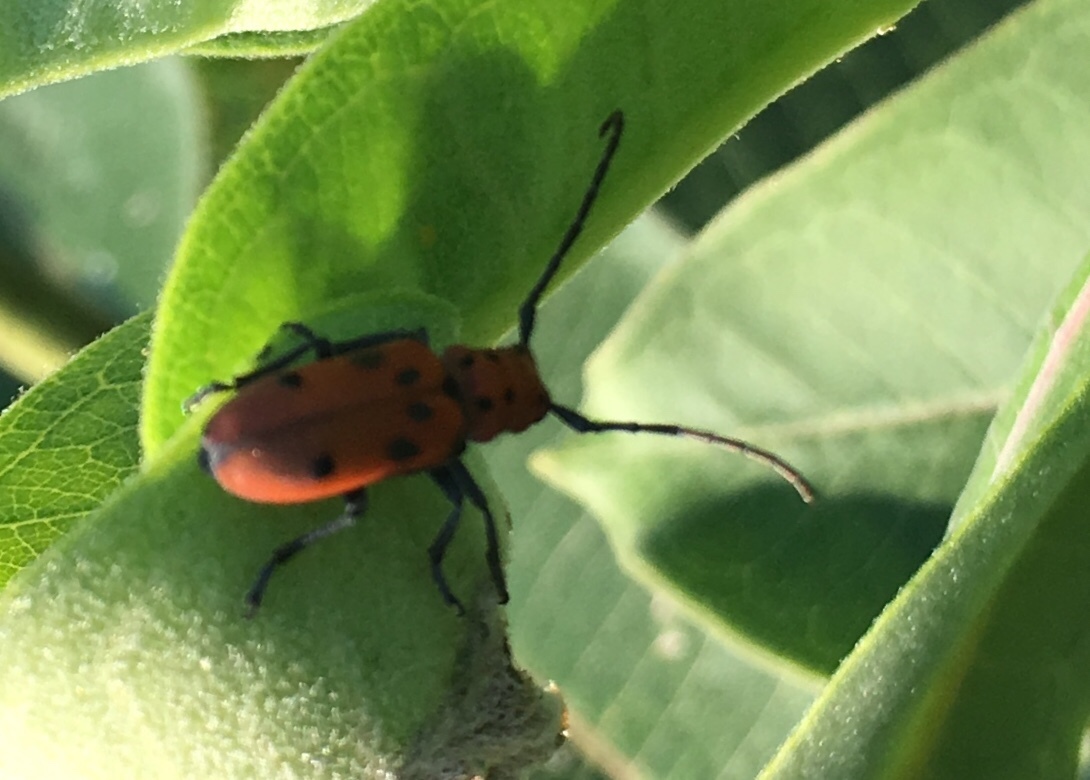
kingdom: Animalia
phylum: Arthropoda
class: Insecta
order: Coleoptera
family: Cerambycidae
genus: Tetraopes
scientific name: Tetraopes tetrophthalmus
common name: Red milkweed beetle
